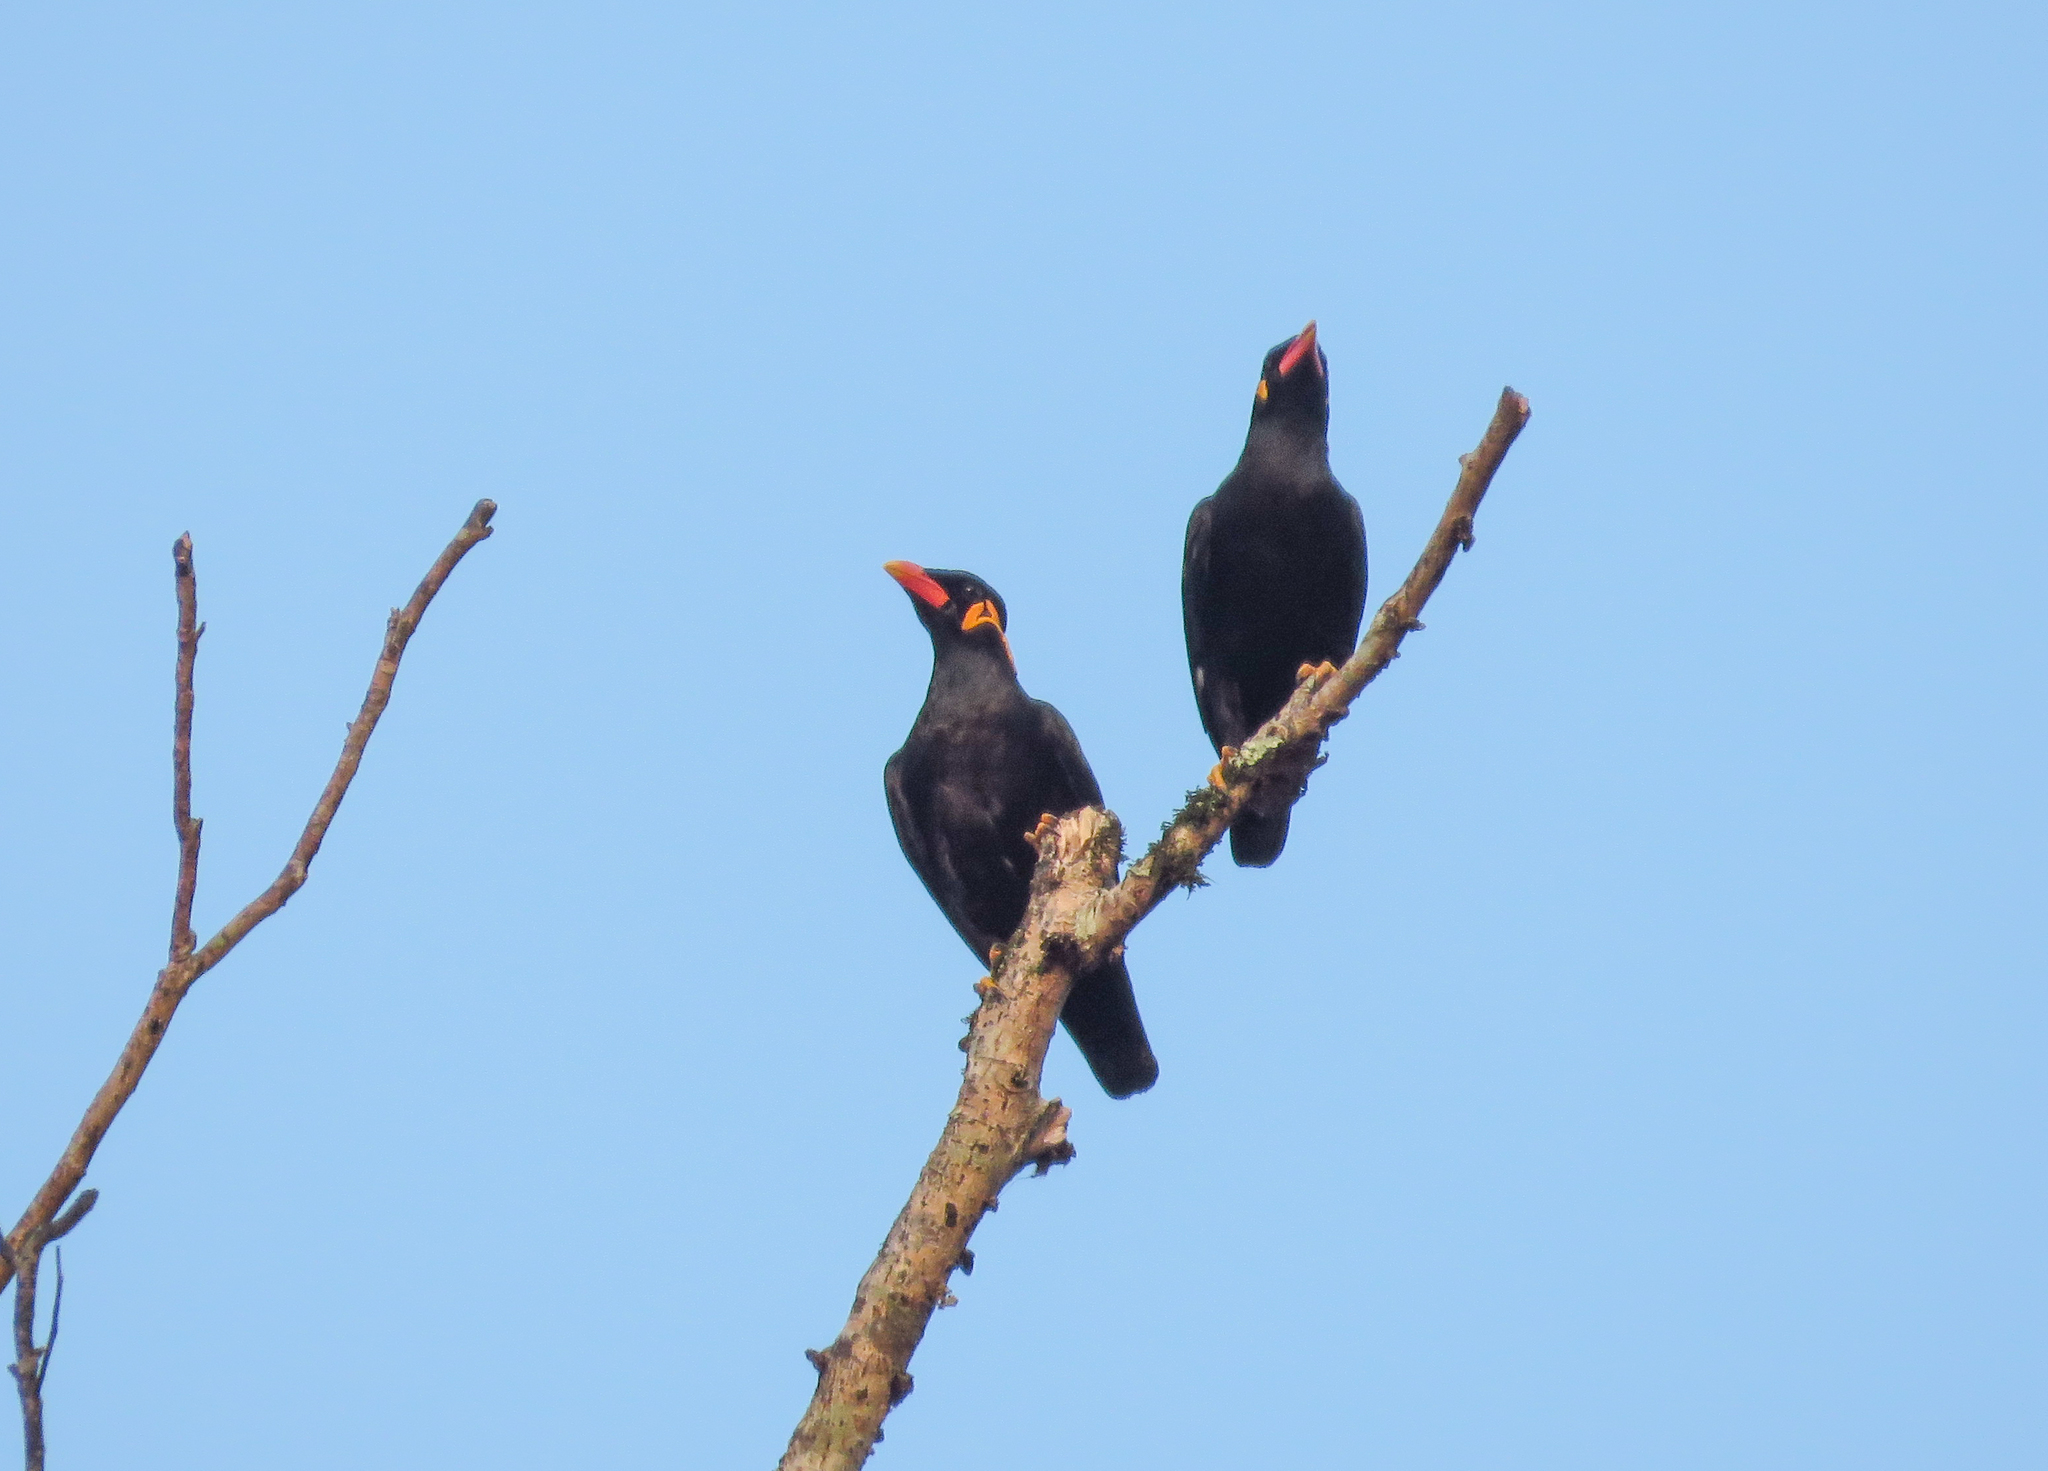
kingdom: Animalia
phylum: Chordata
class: Aves
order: Passeriformes
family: Sturnidae
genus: Gracula
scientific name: Gracula religiosa
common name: Common hill myna
